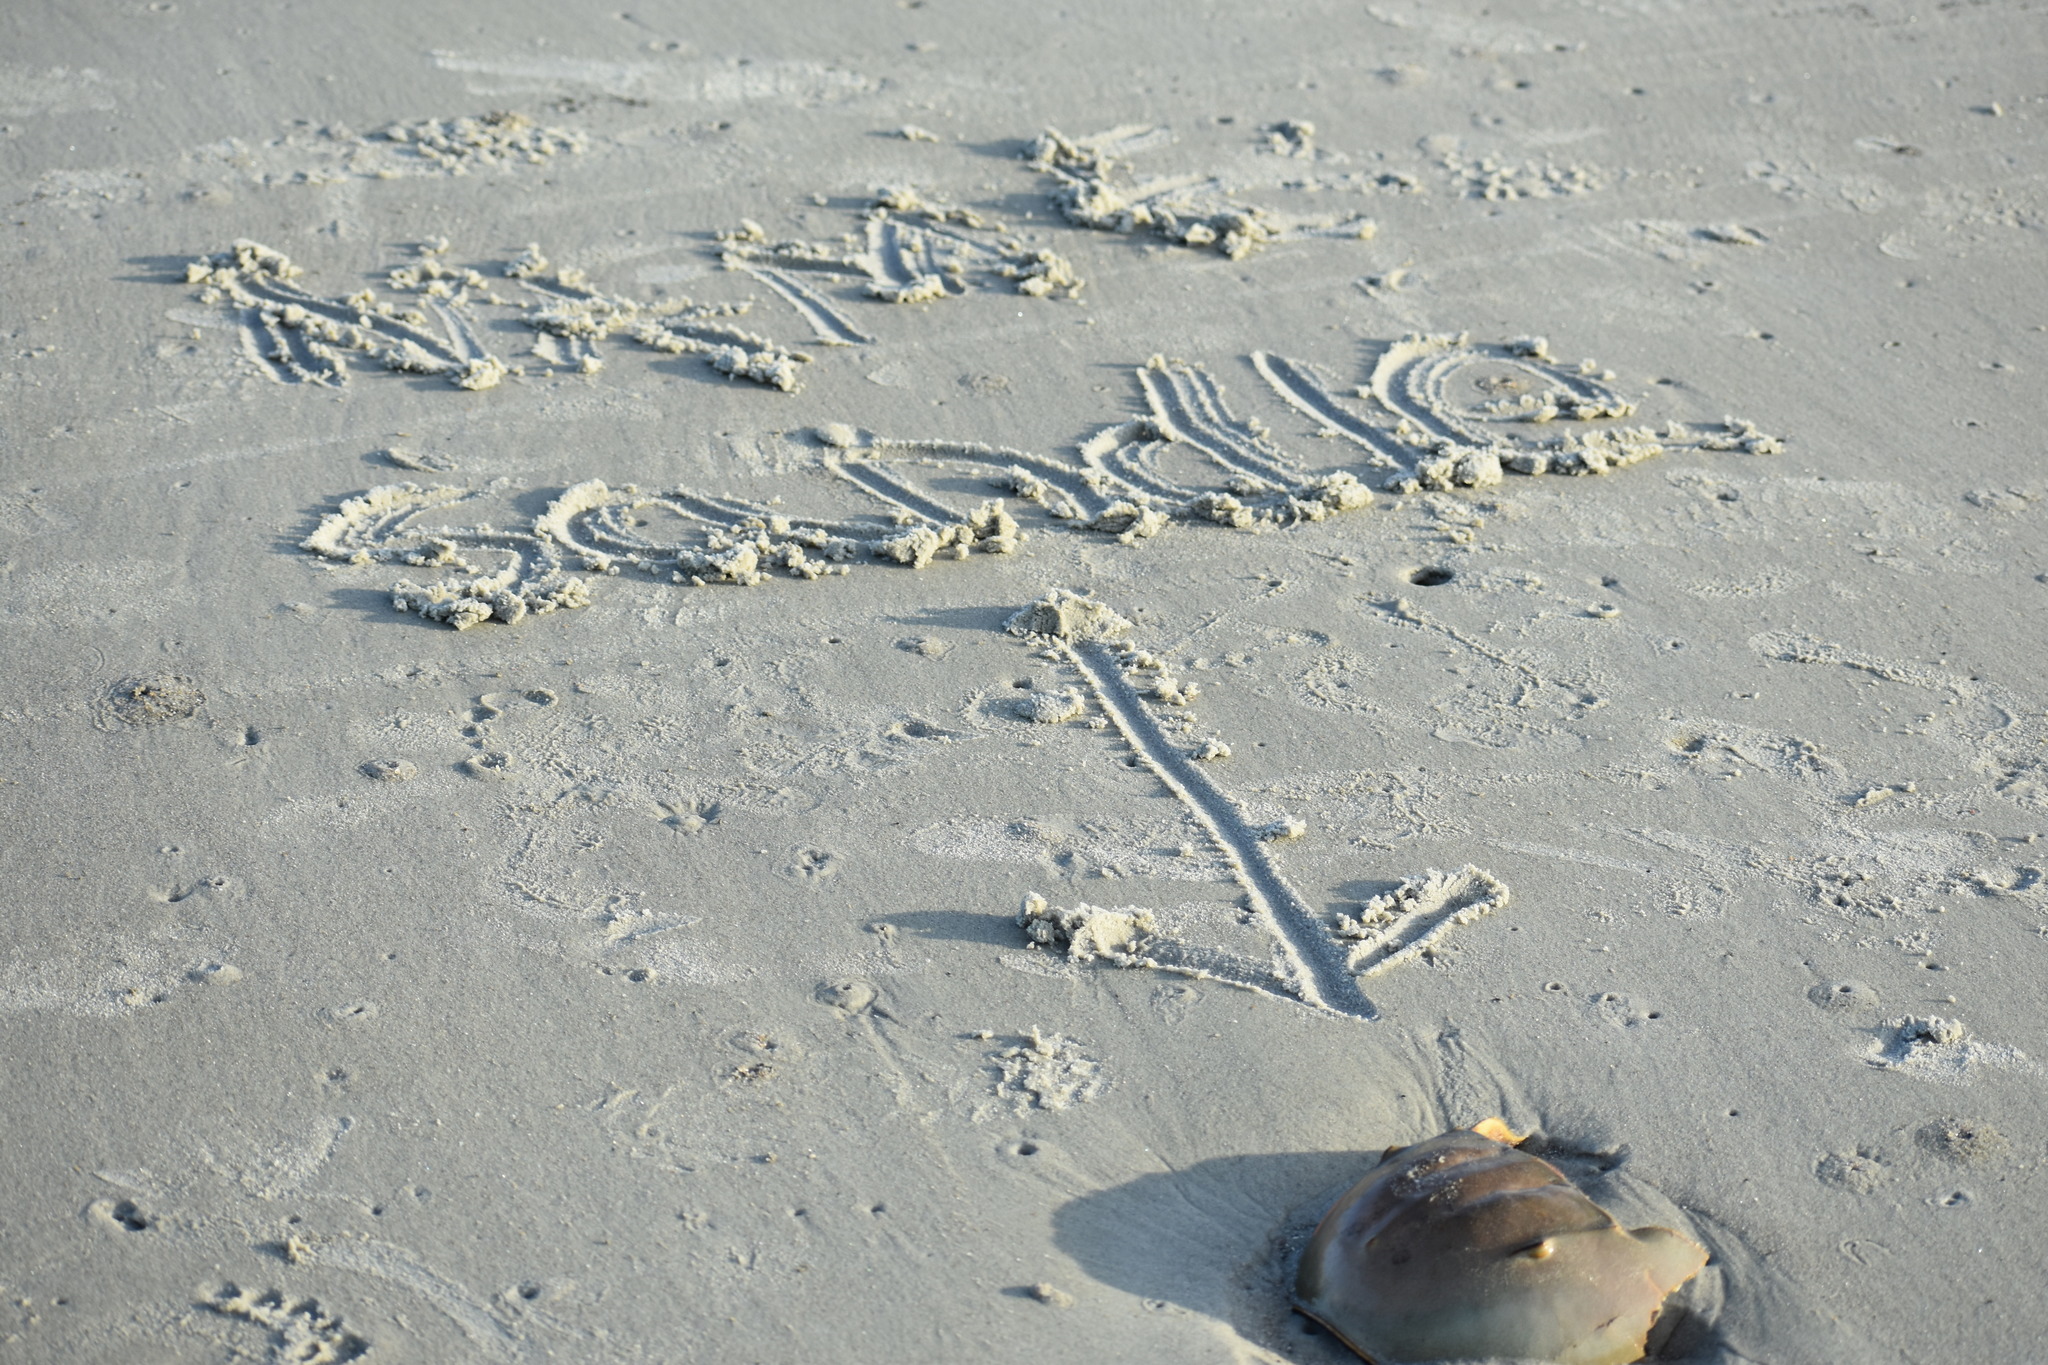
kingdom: Animalia
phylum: Arthropoda
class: Merostomata
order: Xiphosurida
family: Limulidae
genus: Limulus
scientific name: Limulus polyphemus
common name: Horseshoe crab
